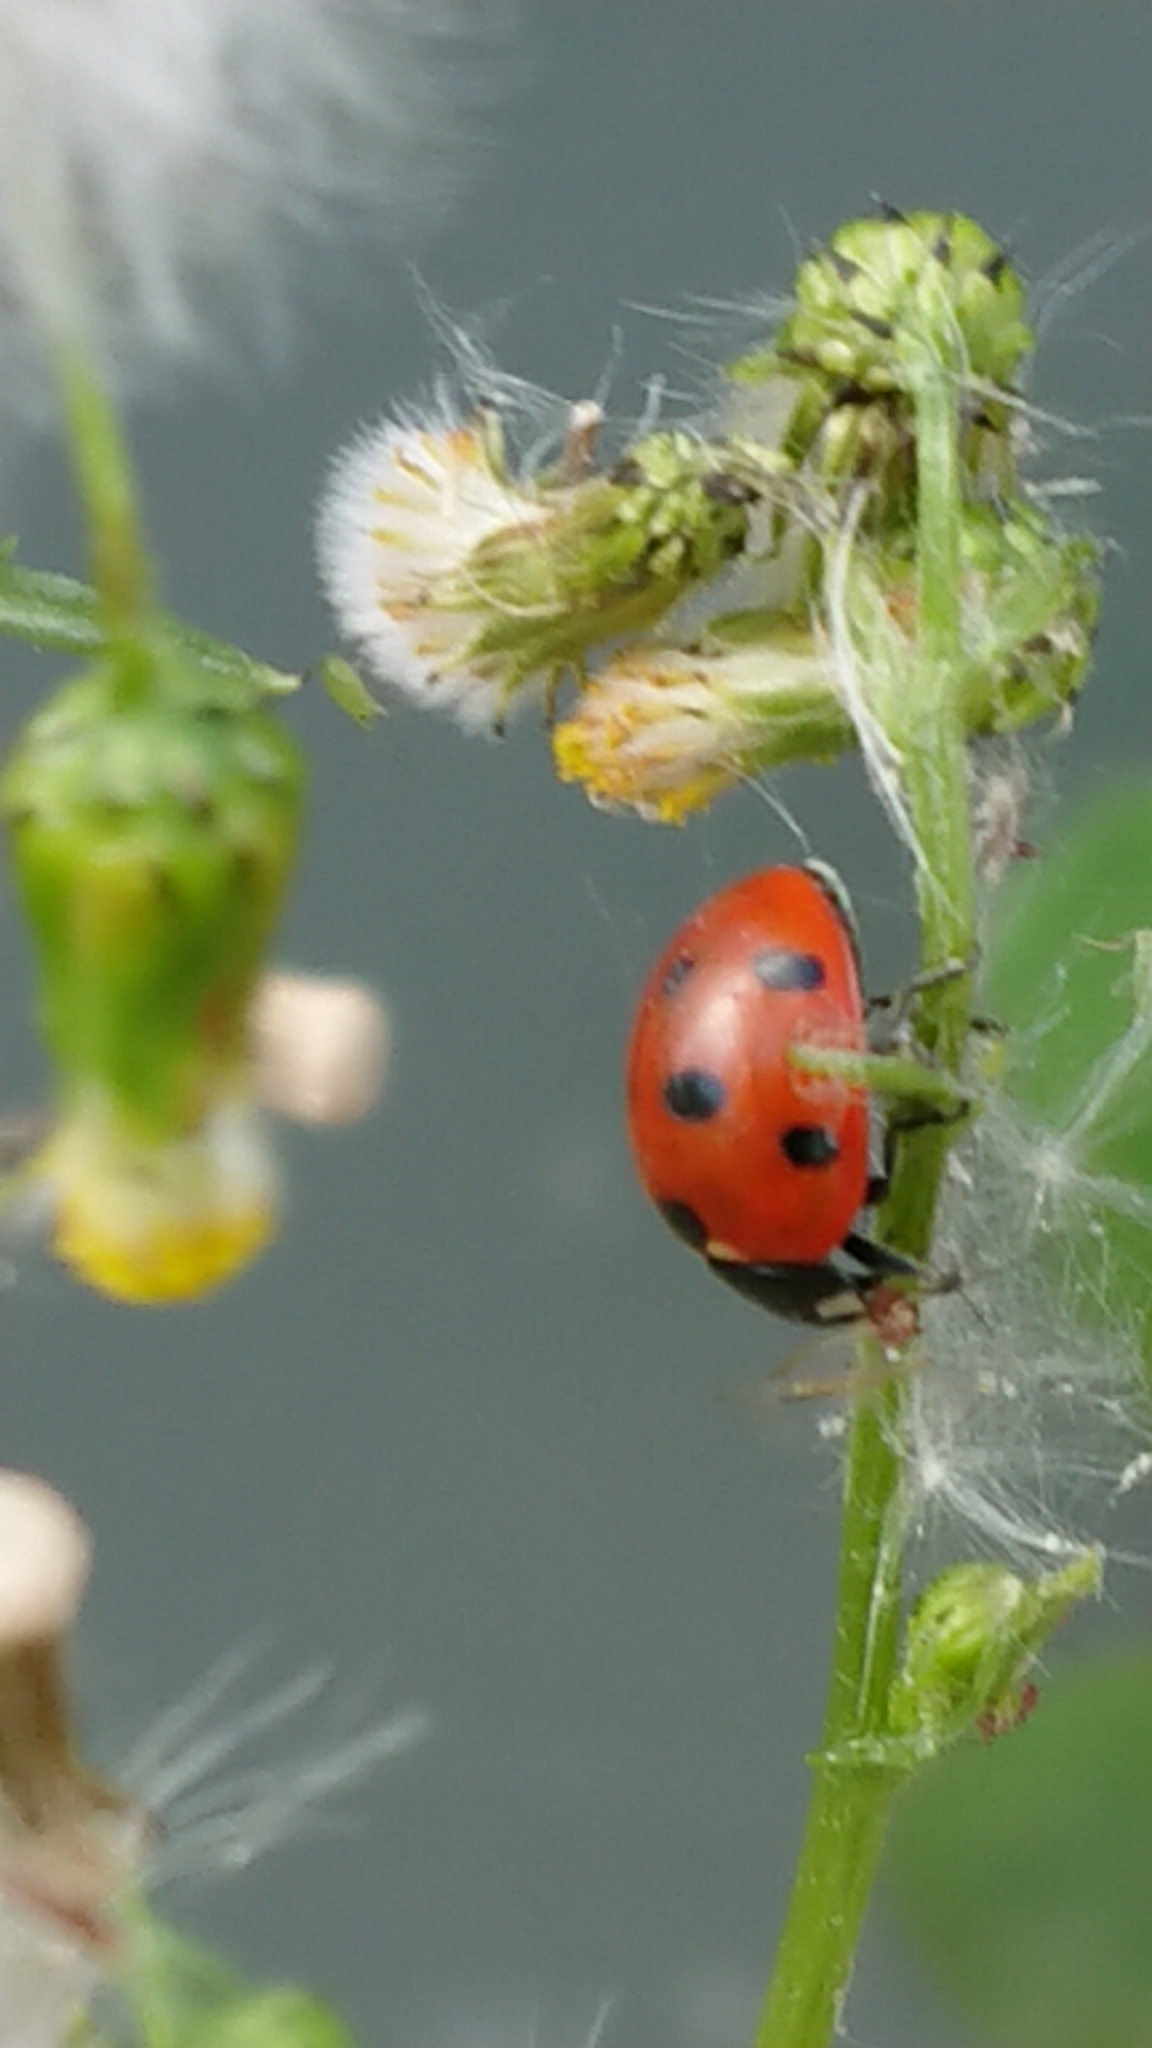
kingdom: Animalia
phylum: Arthropoda
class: Insecta
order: Coleoptera
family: Coccinellidae
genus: Coccinella
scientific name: Coccinella septempunctata
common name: Sevenspotted lady beetle
